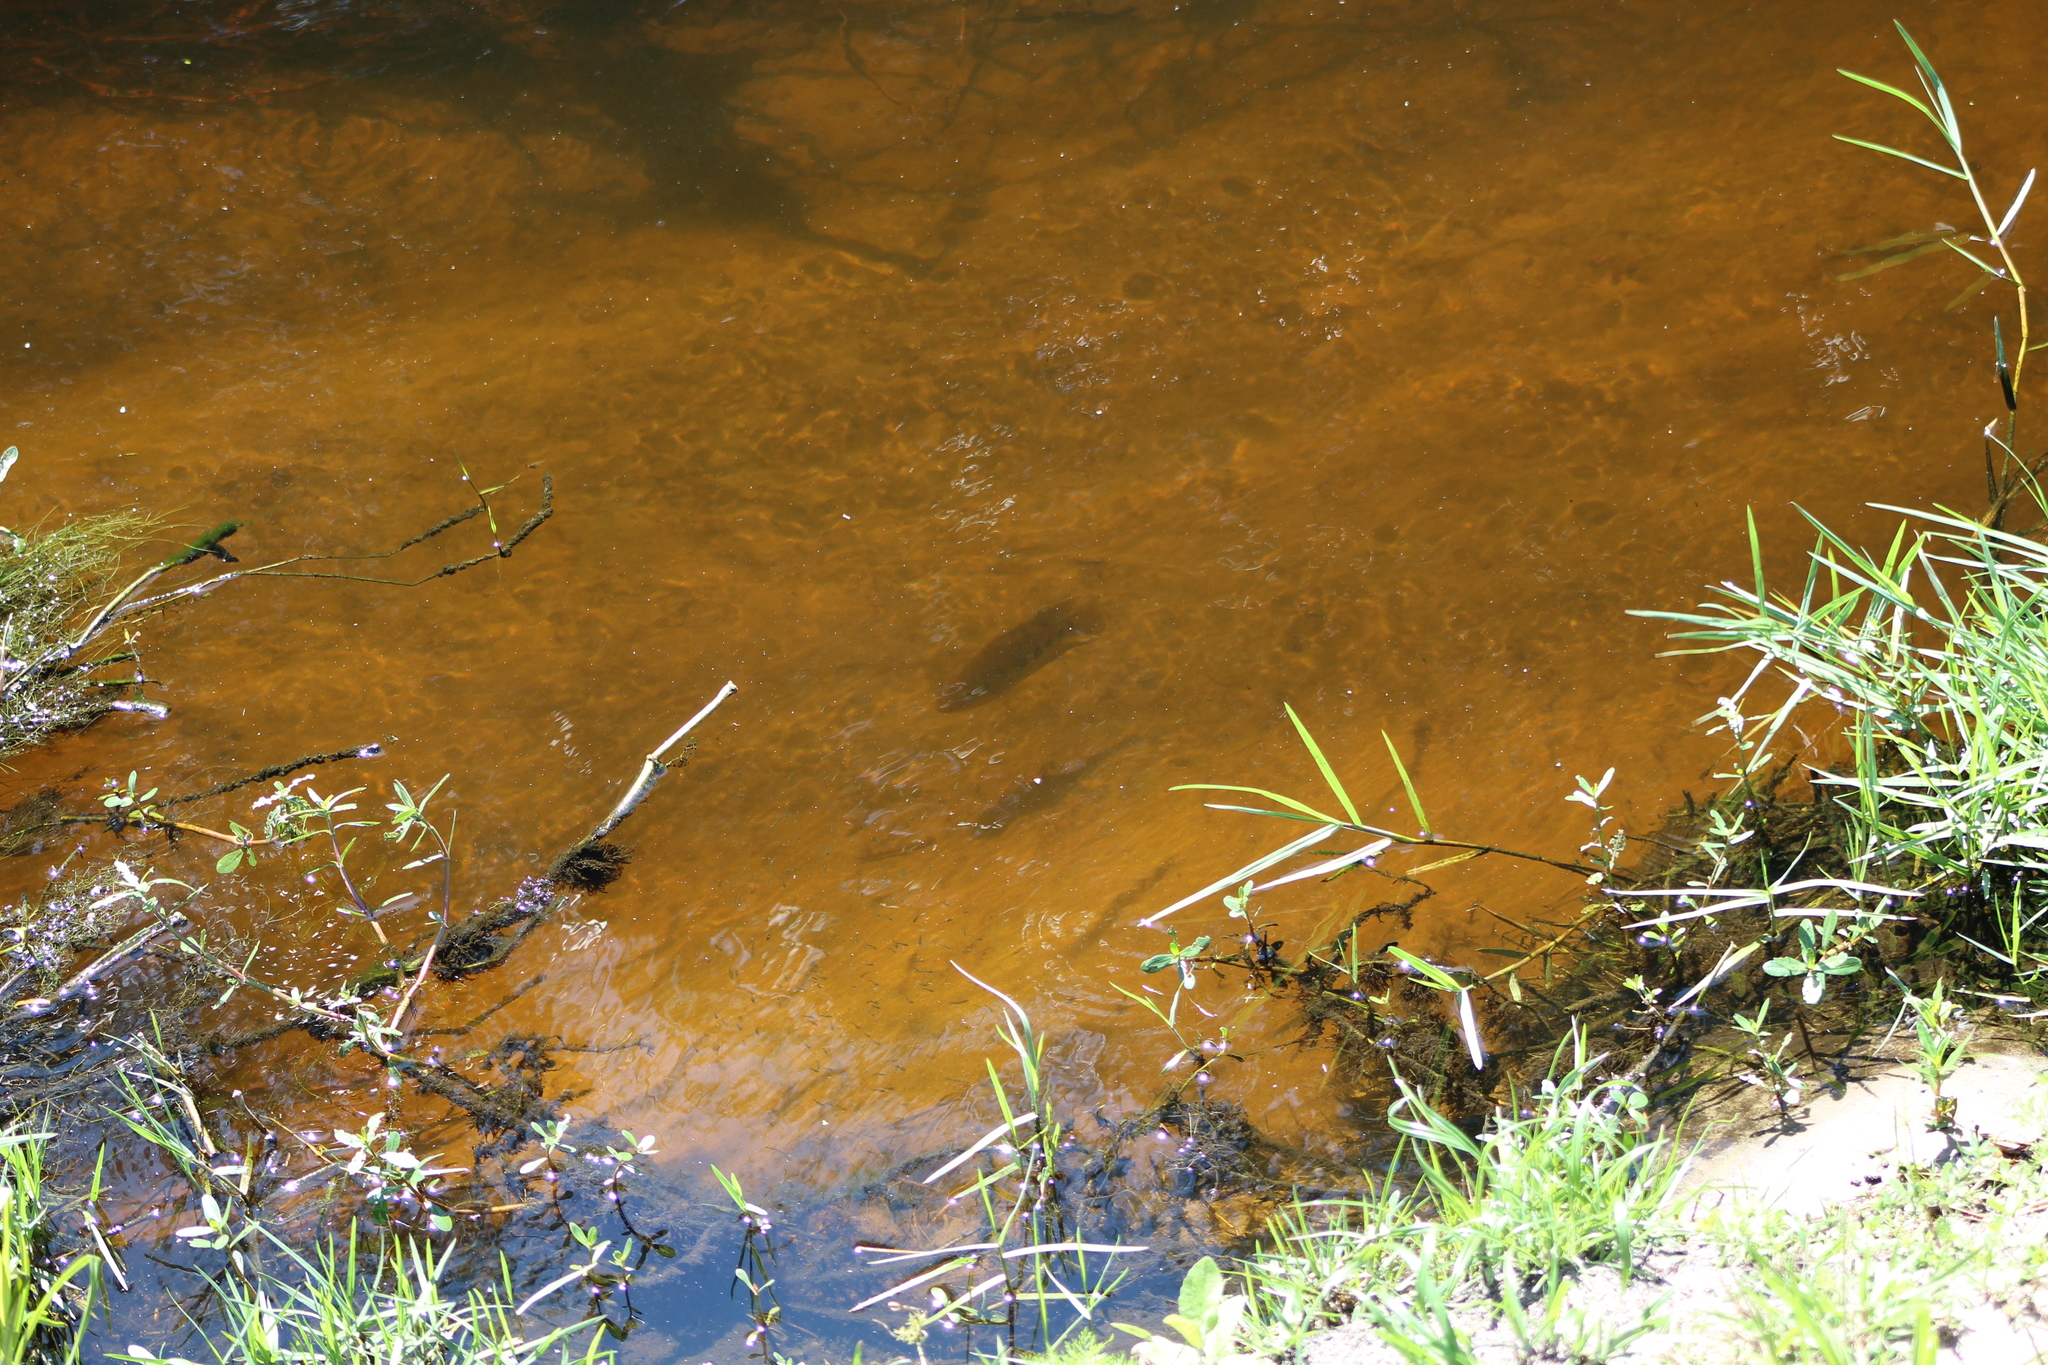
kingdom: Animalia
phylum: Chordata
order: Perciformes
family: Cichlidae
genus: Pelmatolapia
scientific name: Pelmatolapia mariae
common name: Spotted tilapia
